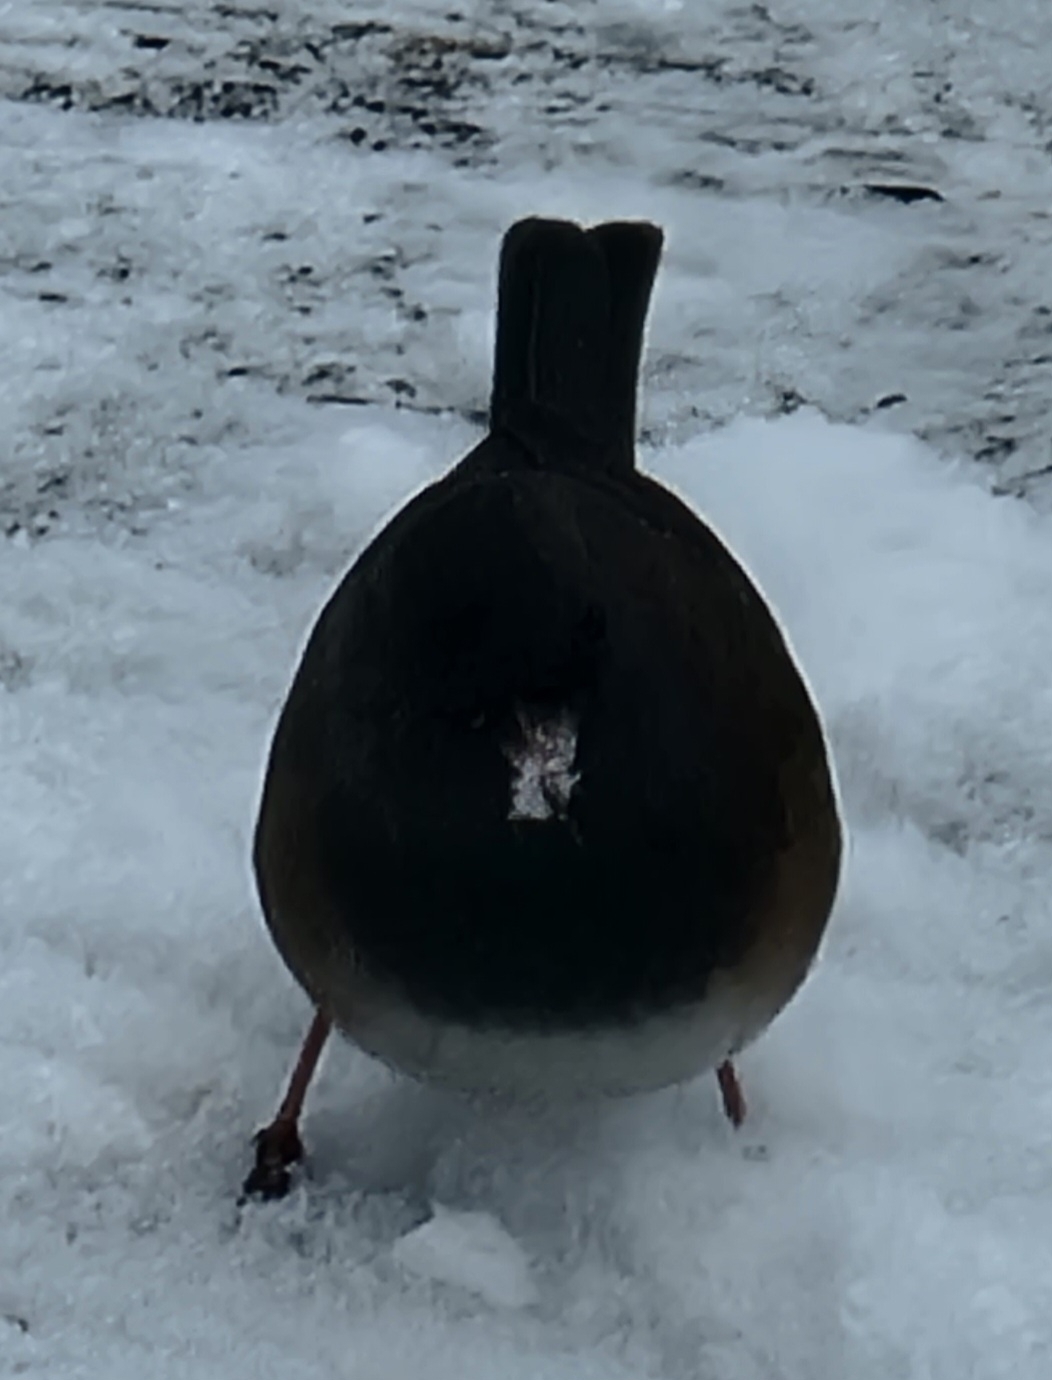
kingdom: Animalia
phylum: Chordata
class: Aves
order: Passeriformes
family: Passerellidae
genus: Junco
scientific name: Junco hyemalis
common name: Dark-eyed junco
